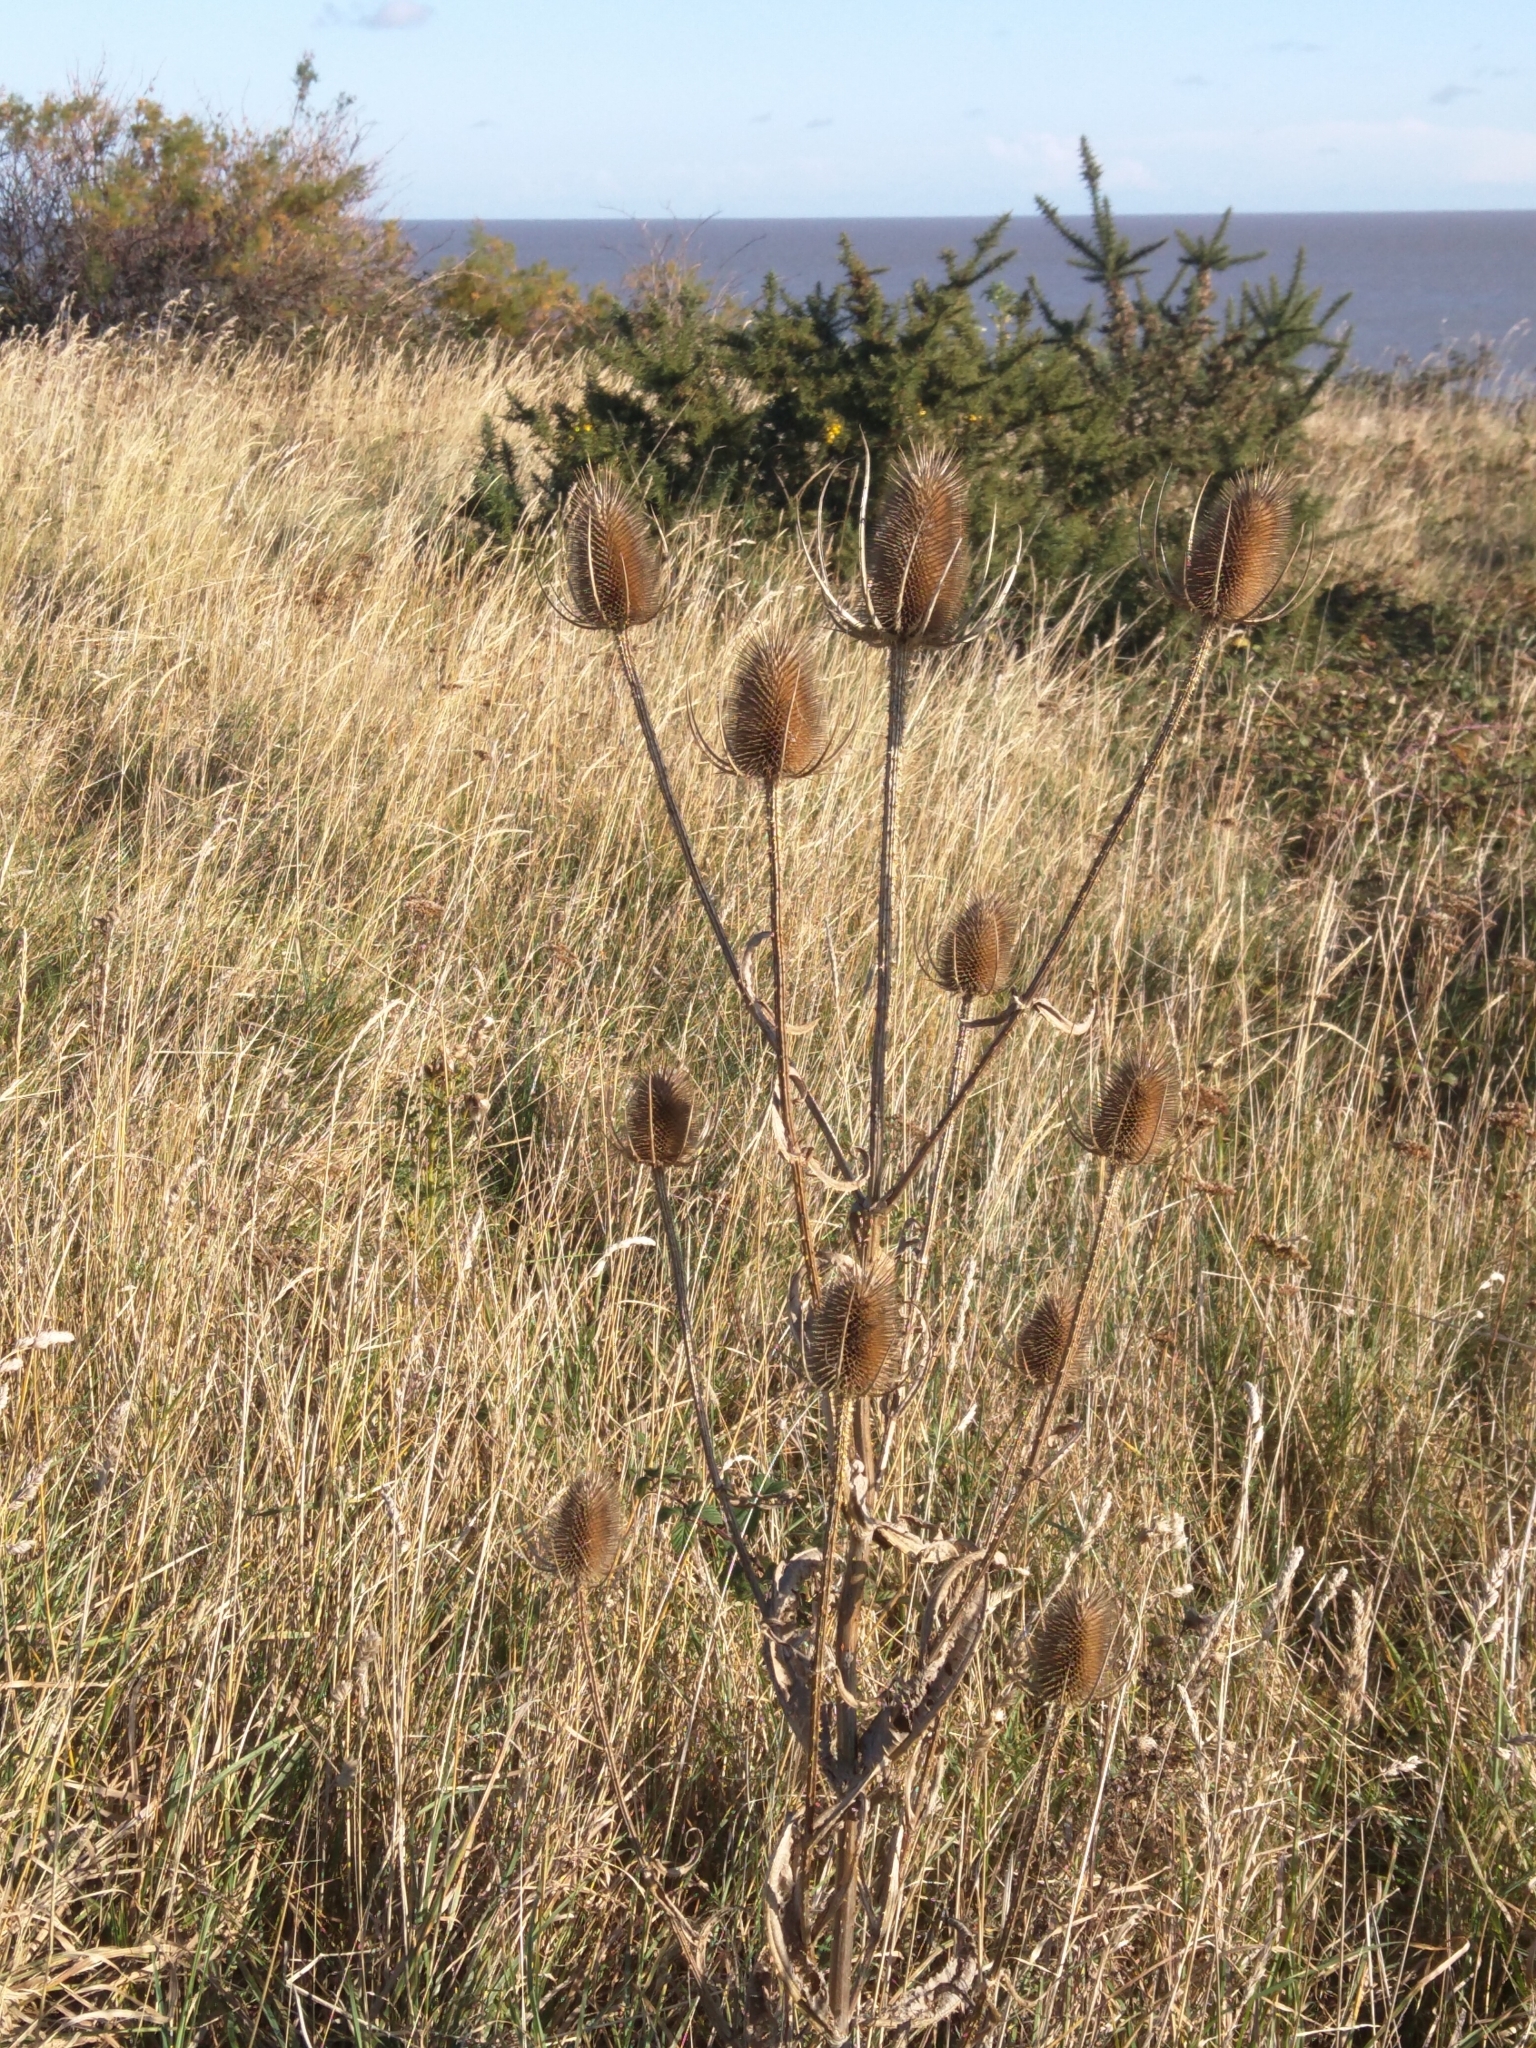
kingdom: Plantae
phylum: Tracheophyta
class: Magnoliopsida
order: Dipsacales
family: Caprifoliaceae
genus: Dipsacus
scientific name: Dipsacus fullonum
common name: Teasel
